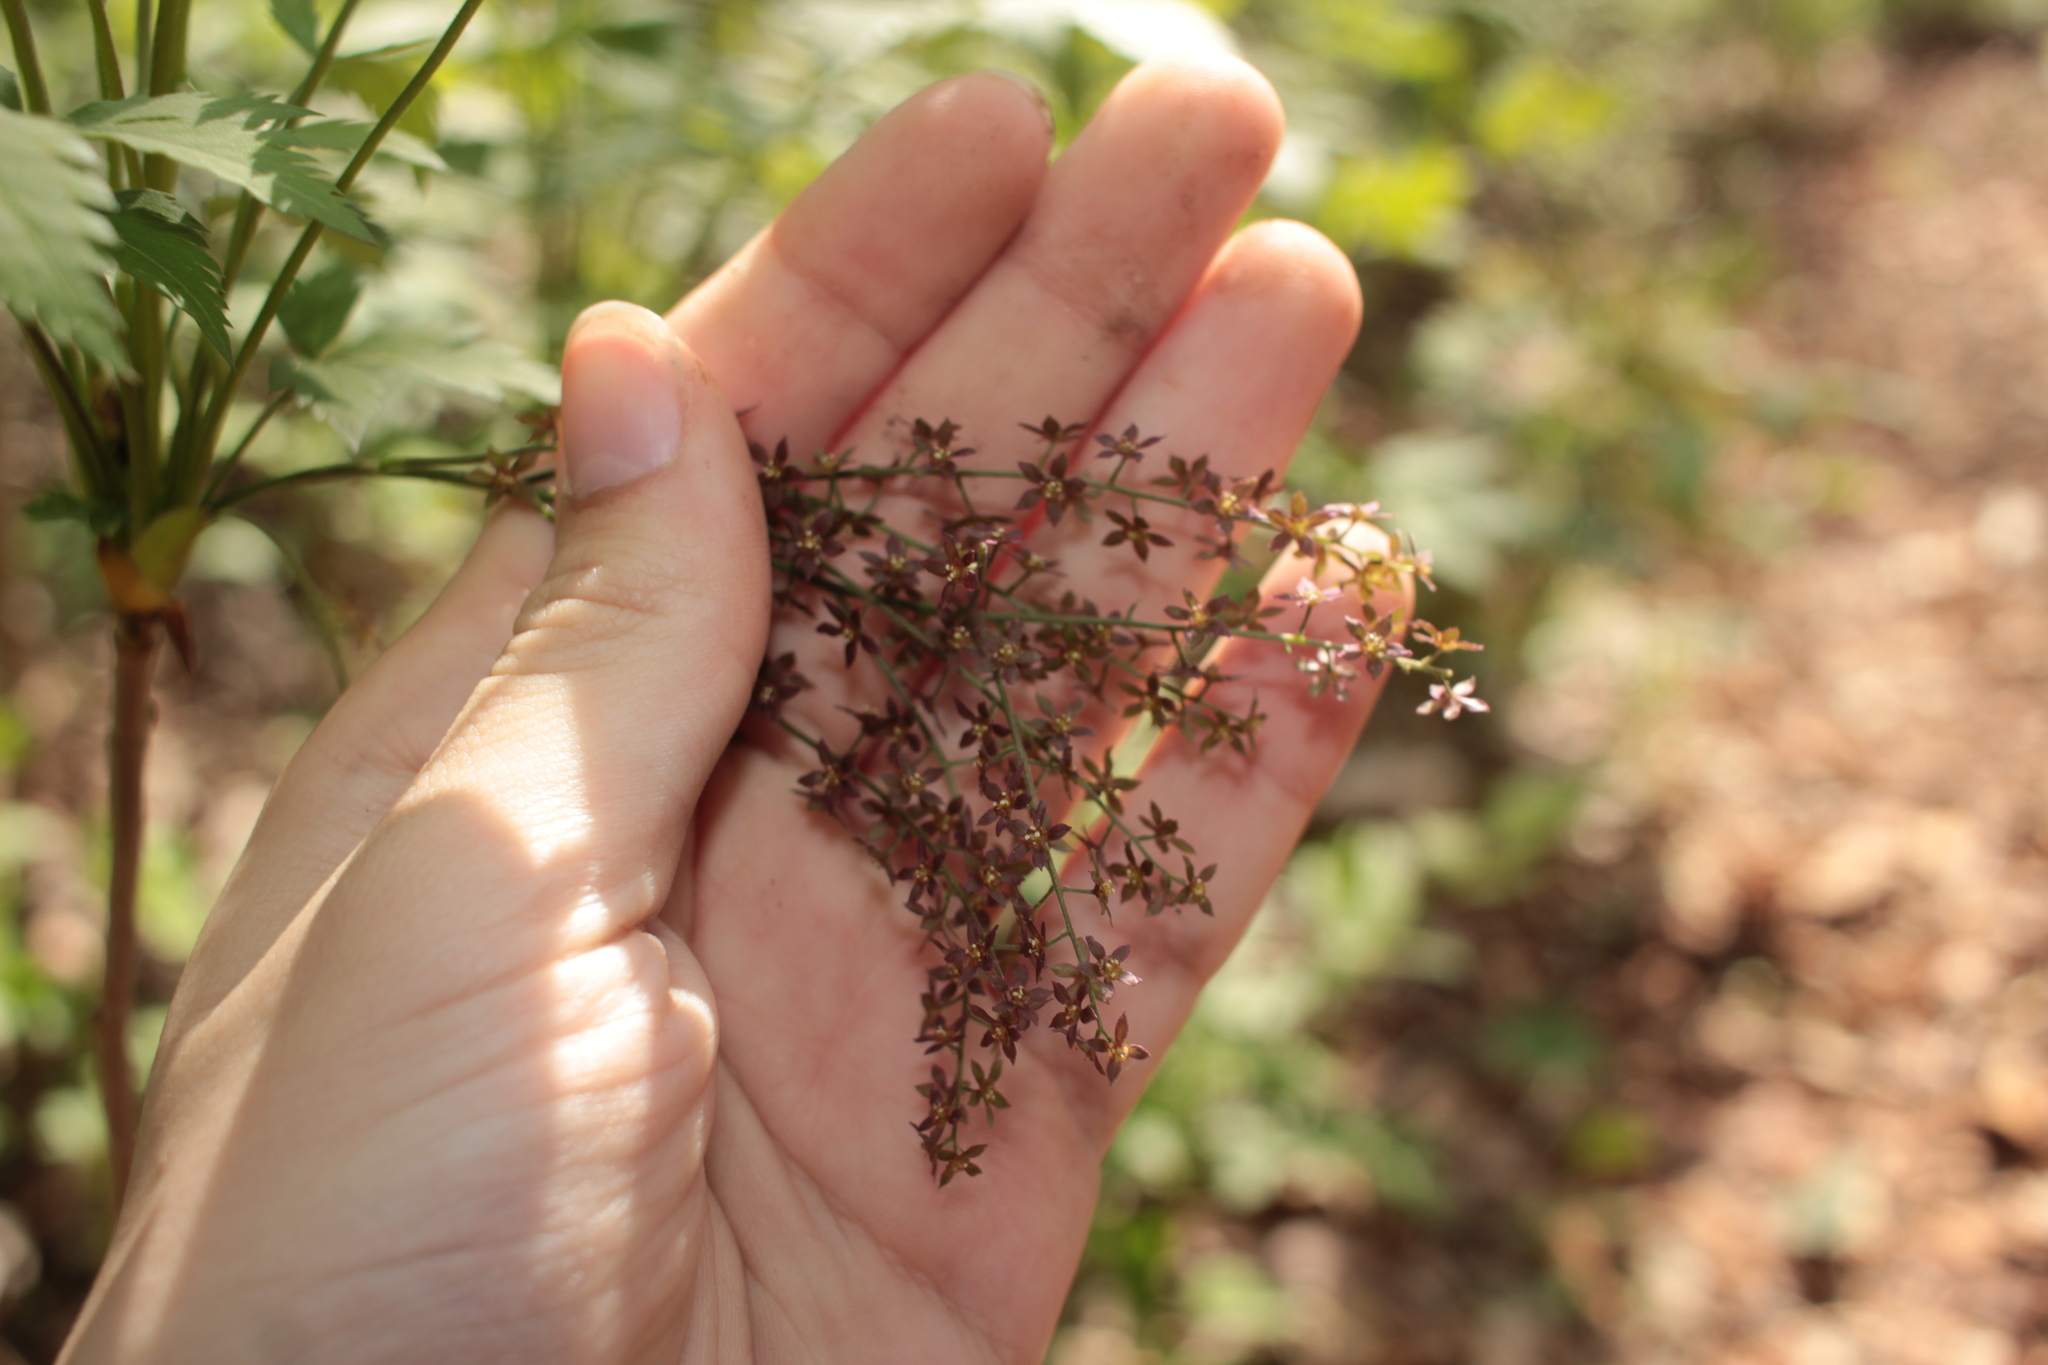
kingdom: Plantae
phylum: Tracheophyta
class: Magnoliopsida
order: Ranunculales
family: Ranunculaceae
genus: Xanthorhiza
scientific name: Xanthorhiza simplicissima
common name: Yellowroot
